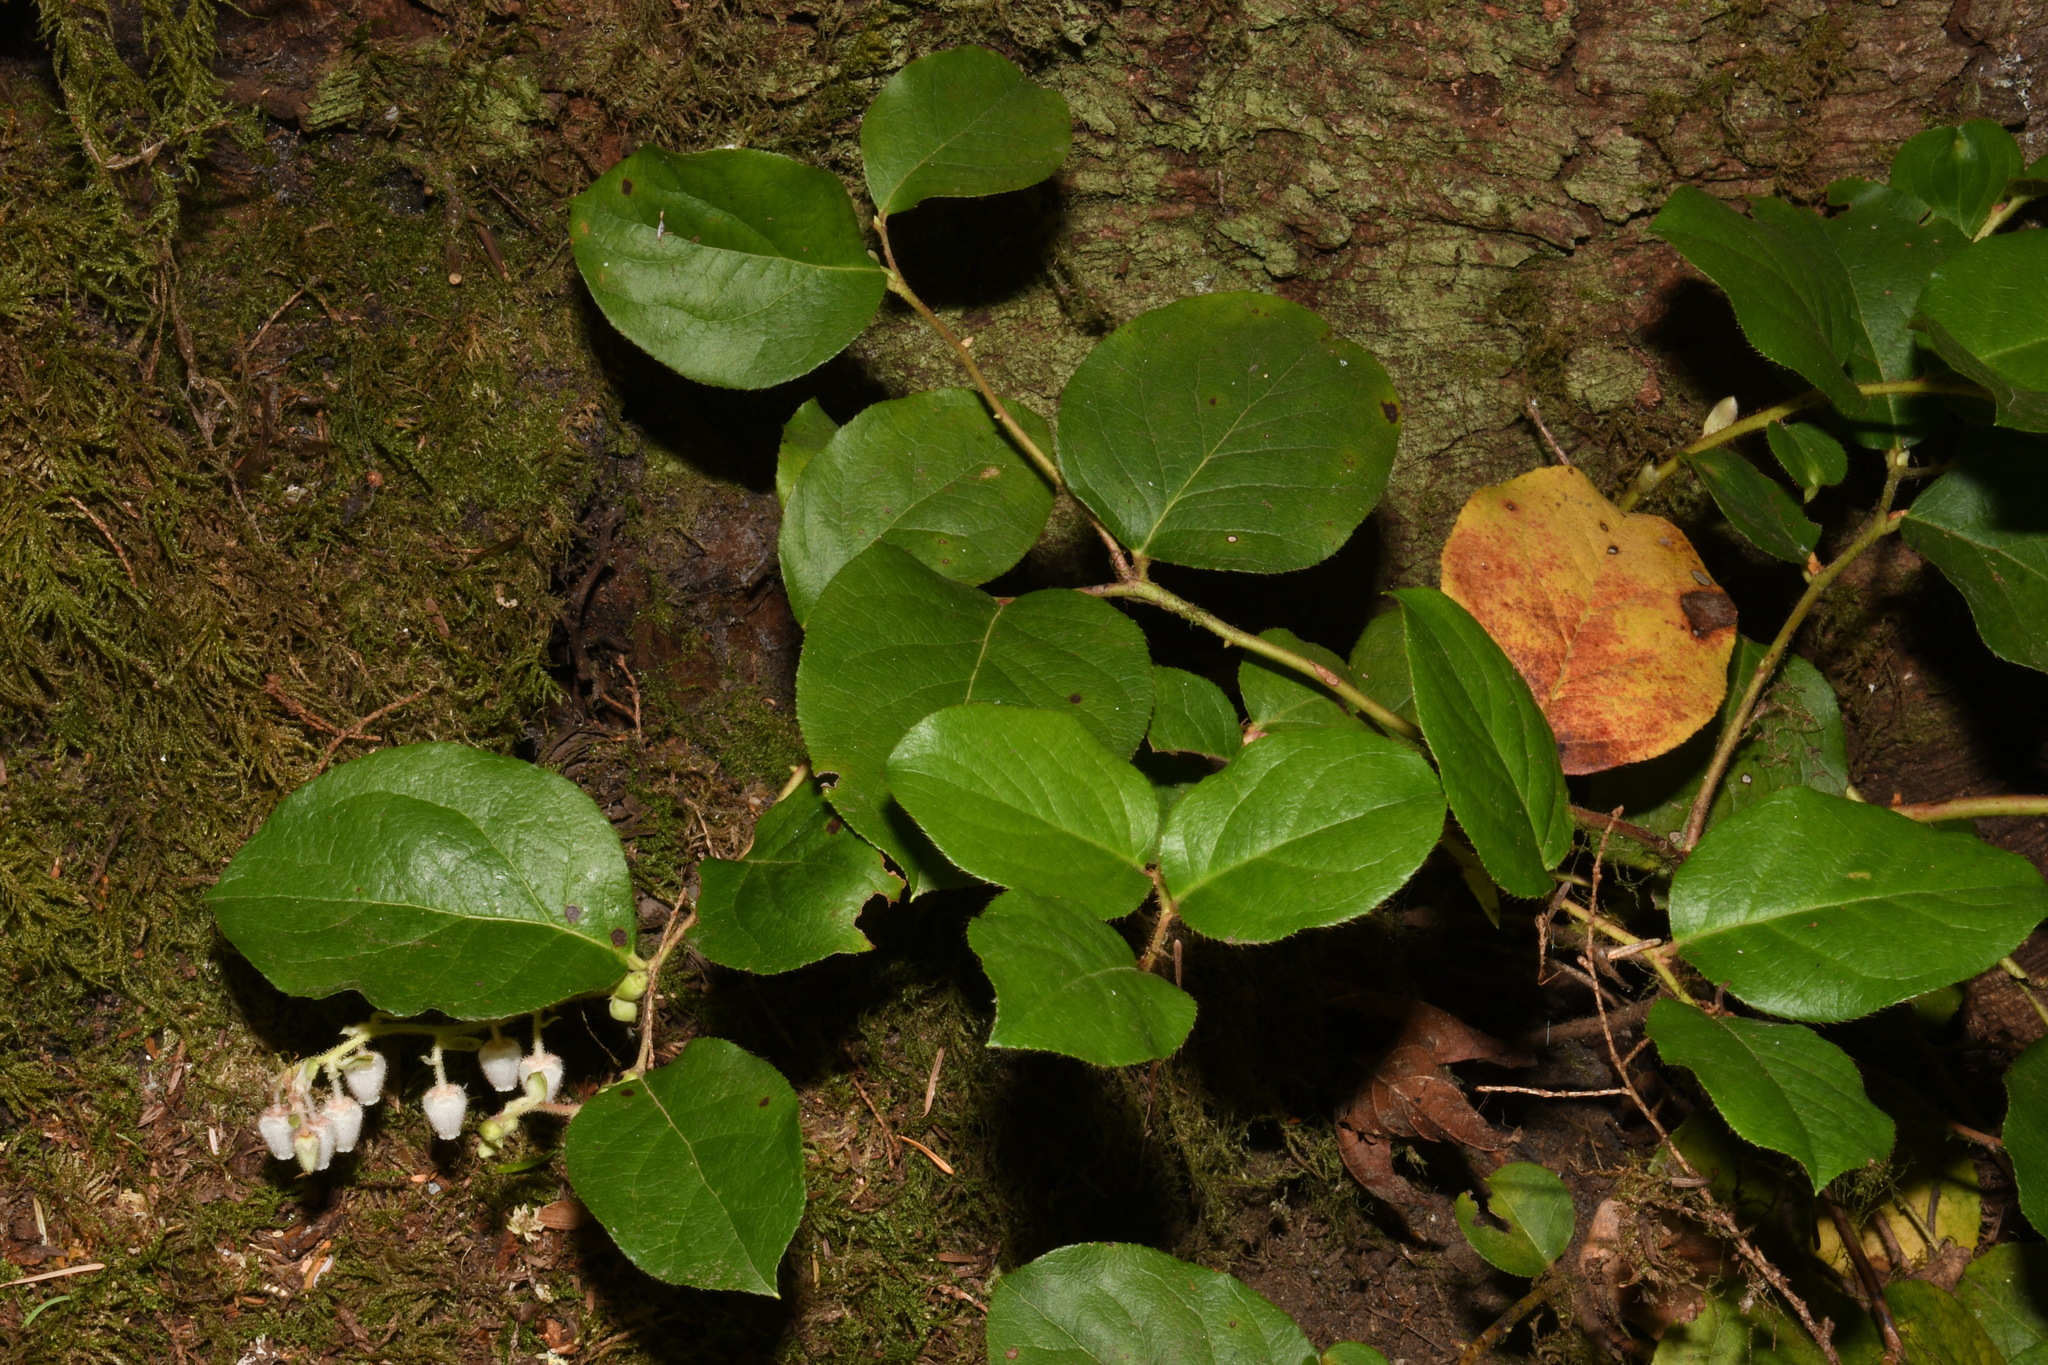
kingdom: Plantae
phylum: Tracheophyta
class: Magnoliopsida
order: Ericales
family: Ericaceae
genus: Gaultheria
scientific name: Gaultheria shallon
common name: Shallon
